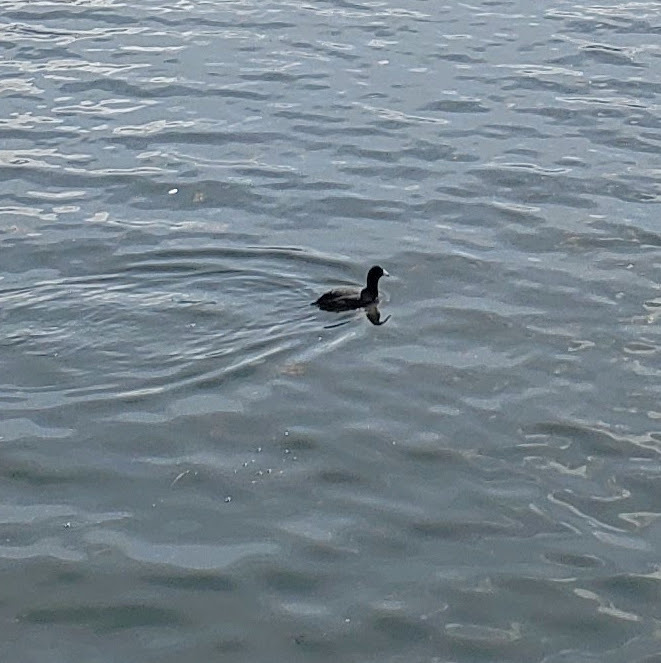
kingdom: Animalia
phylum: Chordata
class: Aves
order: Gruiformes
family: Rallidae
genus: Fulica
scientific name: Fulica americana
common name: American coot
